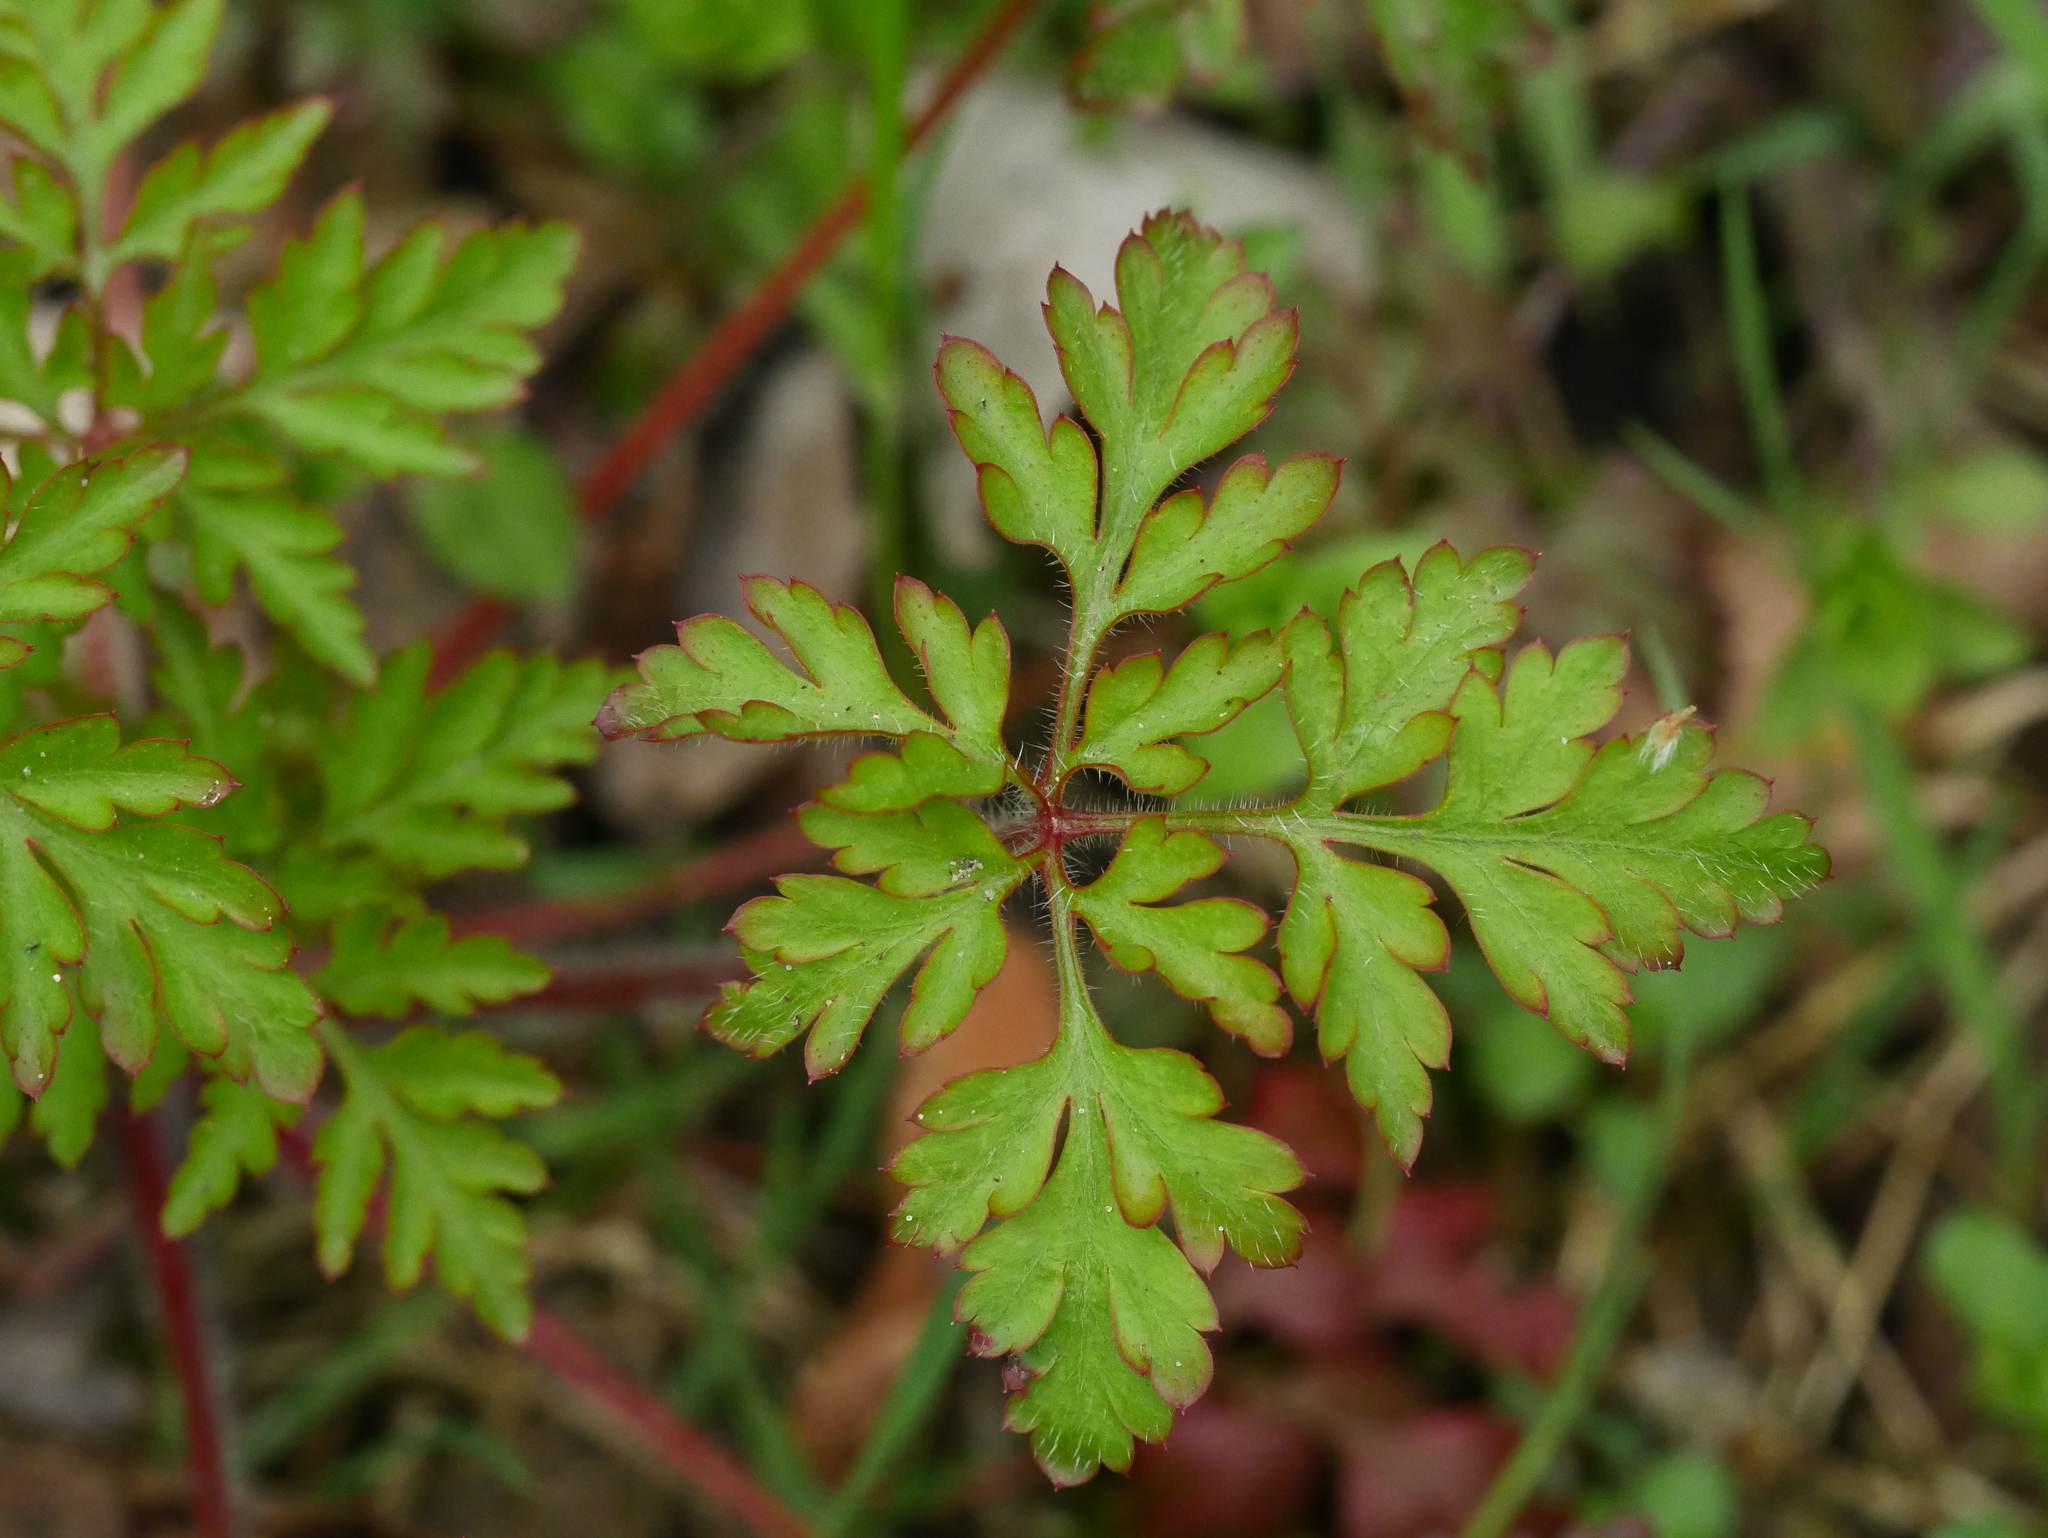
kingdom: Plantae
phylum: Tracheophyta
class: Magnoliopsida
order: Geraniales
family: Geraniaceae
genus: Geranium
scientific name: Geranium robertianum
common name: Herb-robert
